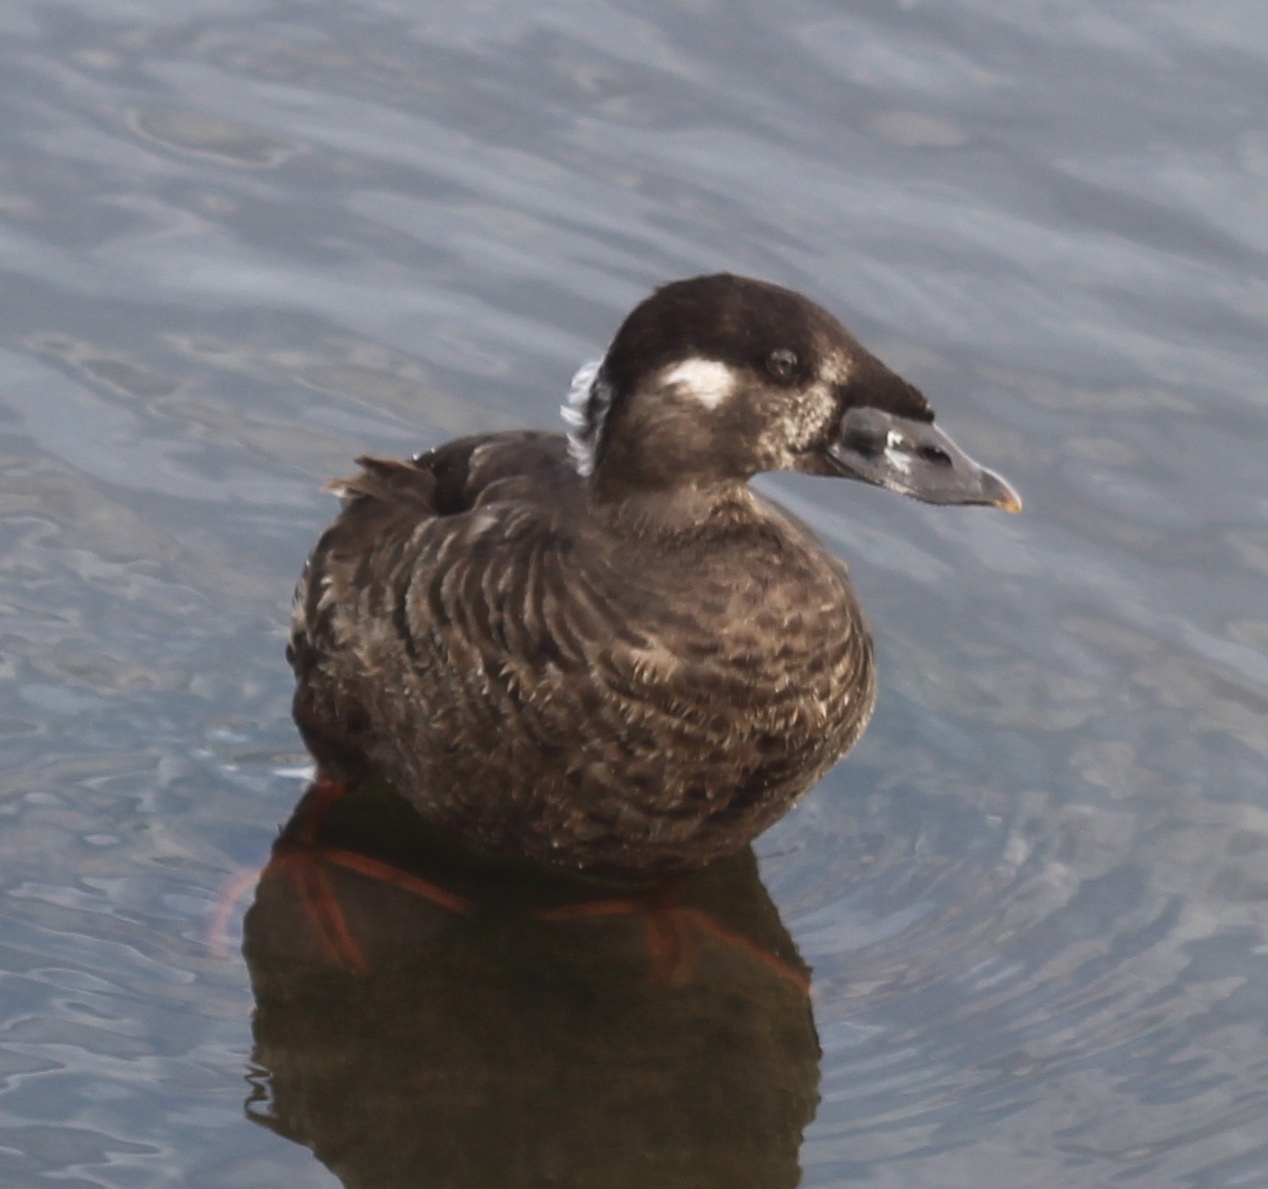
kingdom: Animalia
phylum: Chordata
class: Aves
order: Anseriformes
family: Anatidae
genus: Melanitta
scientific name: Melanitta perspicillata
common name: Surf scoter
